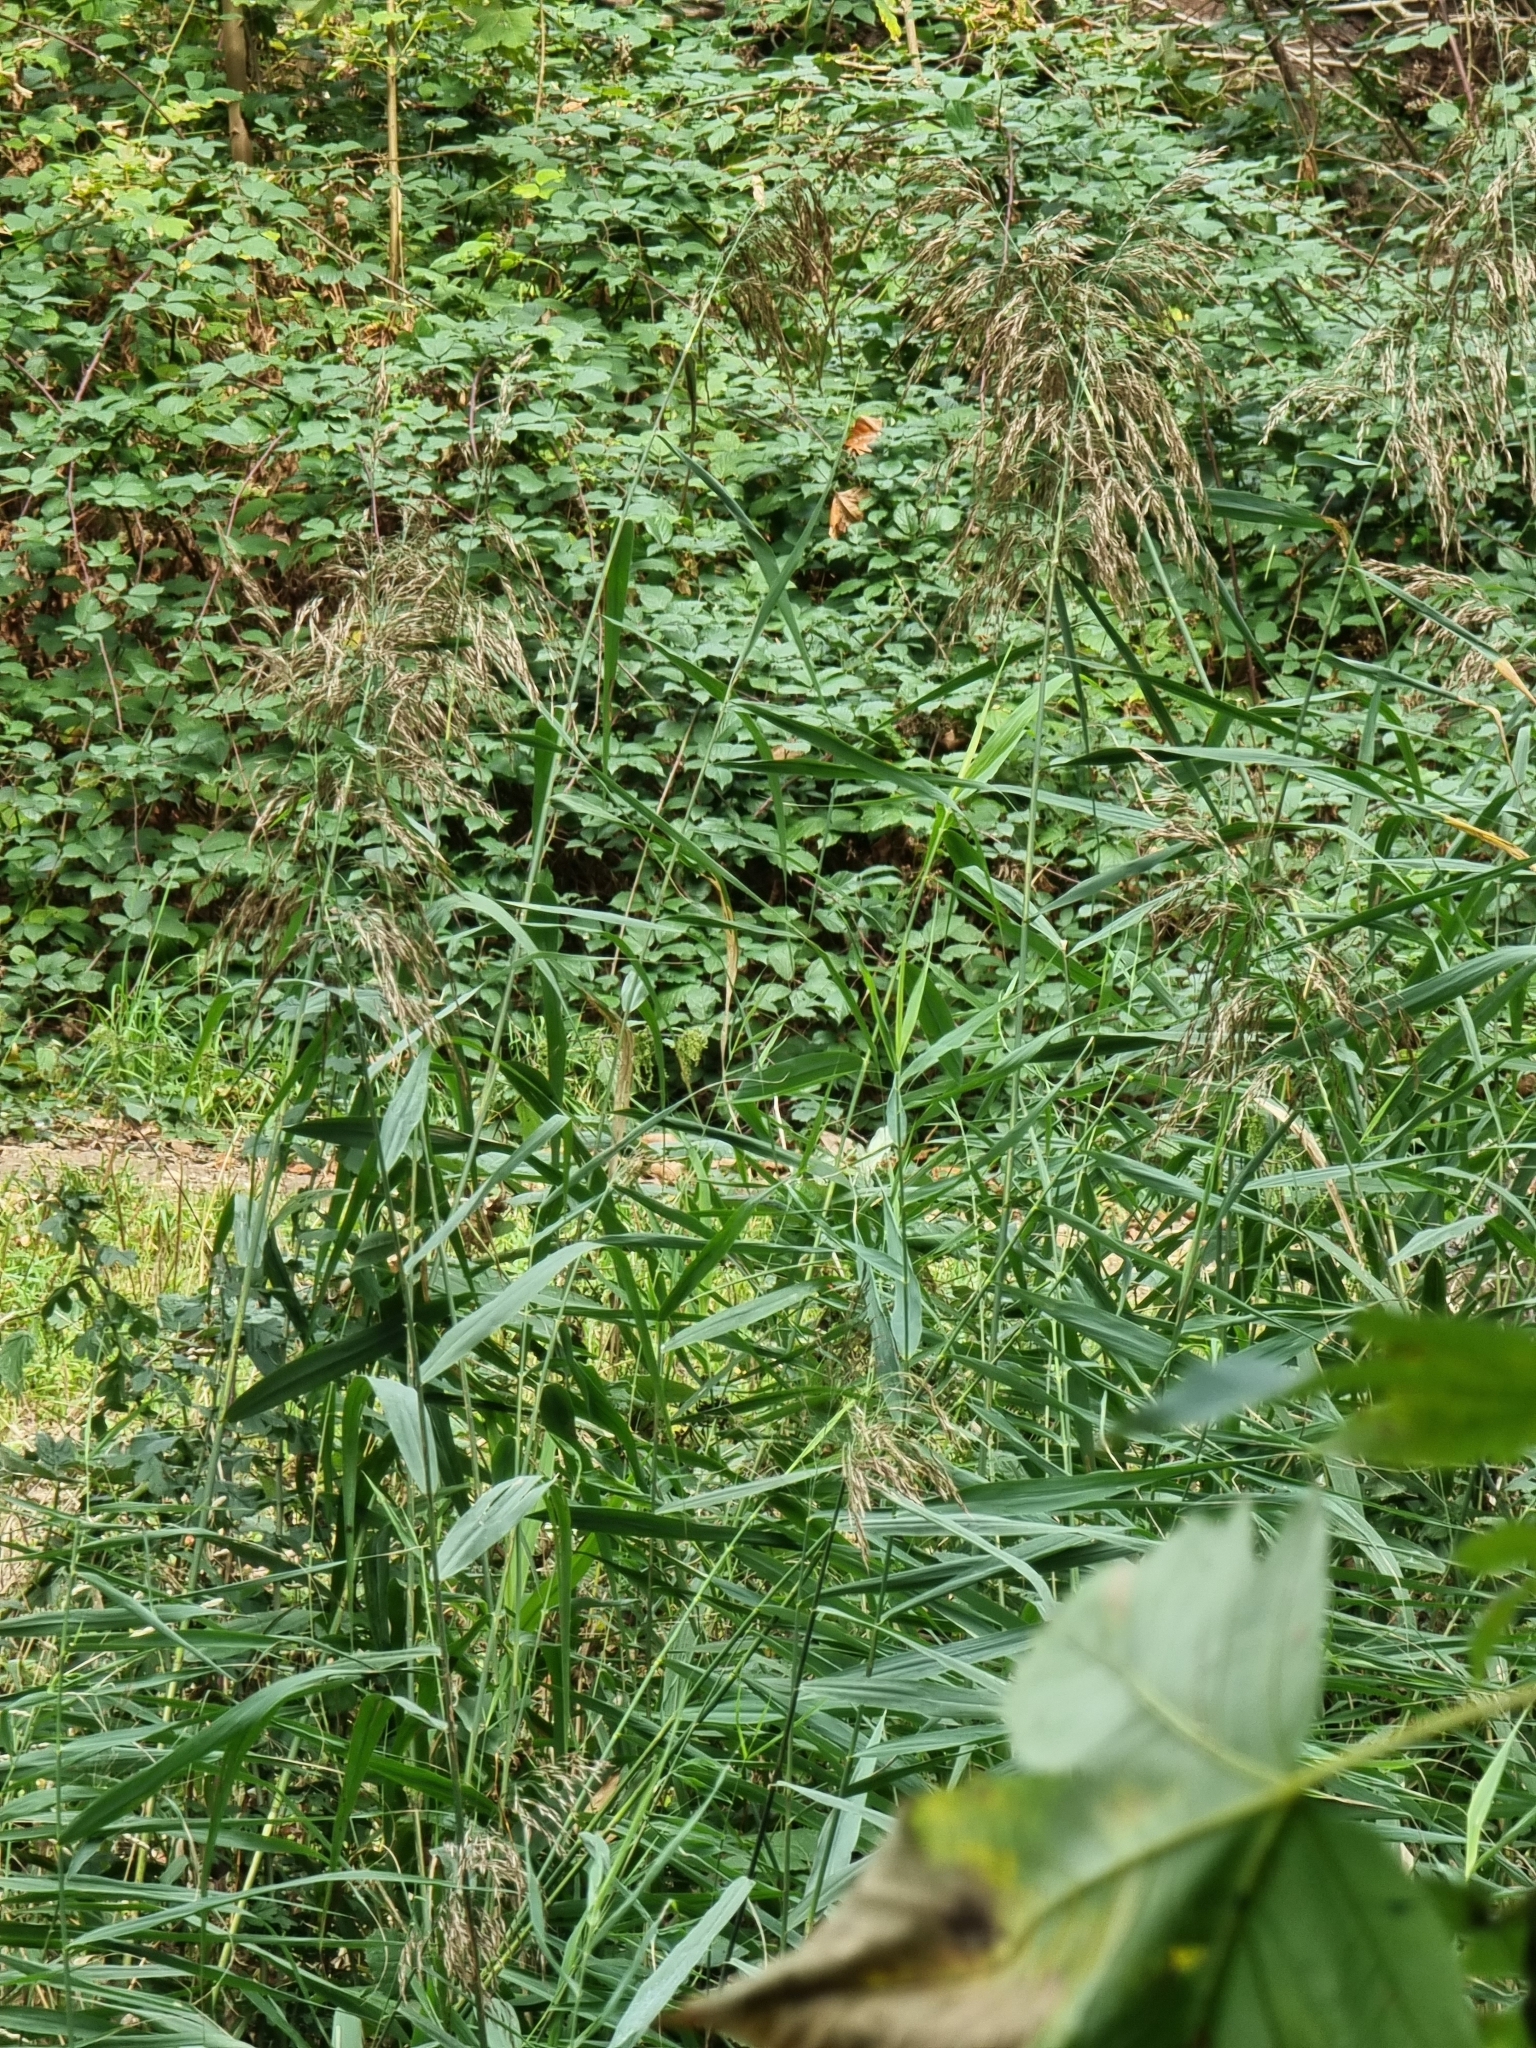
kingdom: Plantae
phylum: Tracheophyta
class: Liliopsida
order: Poales
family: Poaceae
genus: Phragmites
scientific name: Phragmites australis
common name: Common reed
